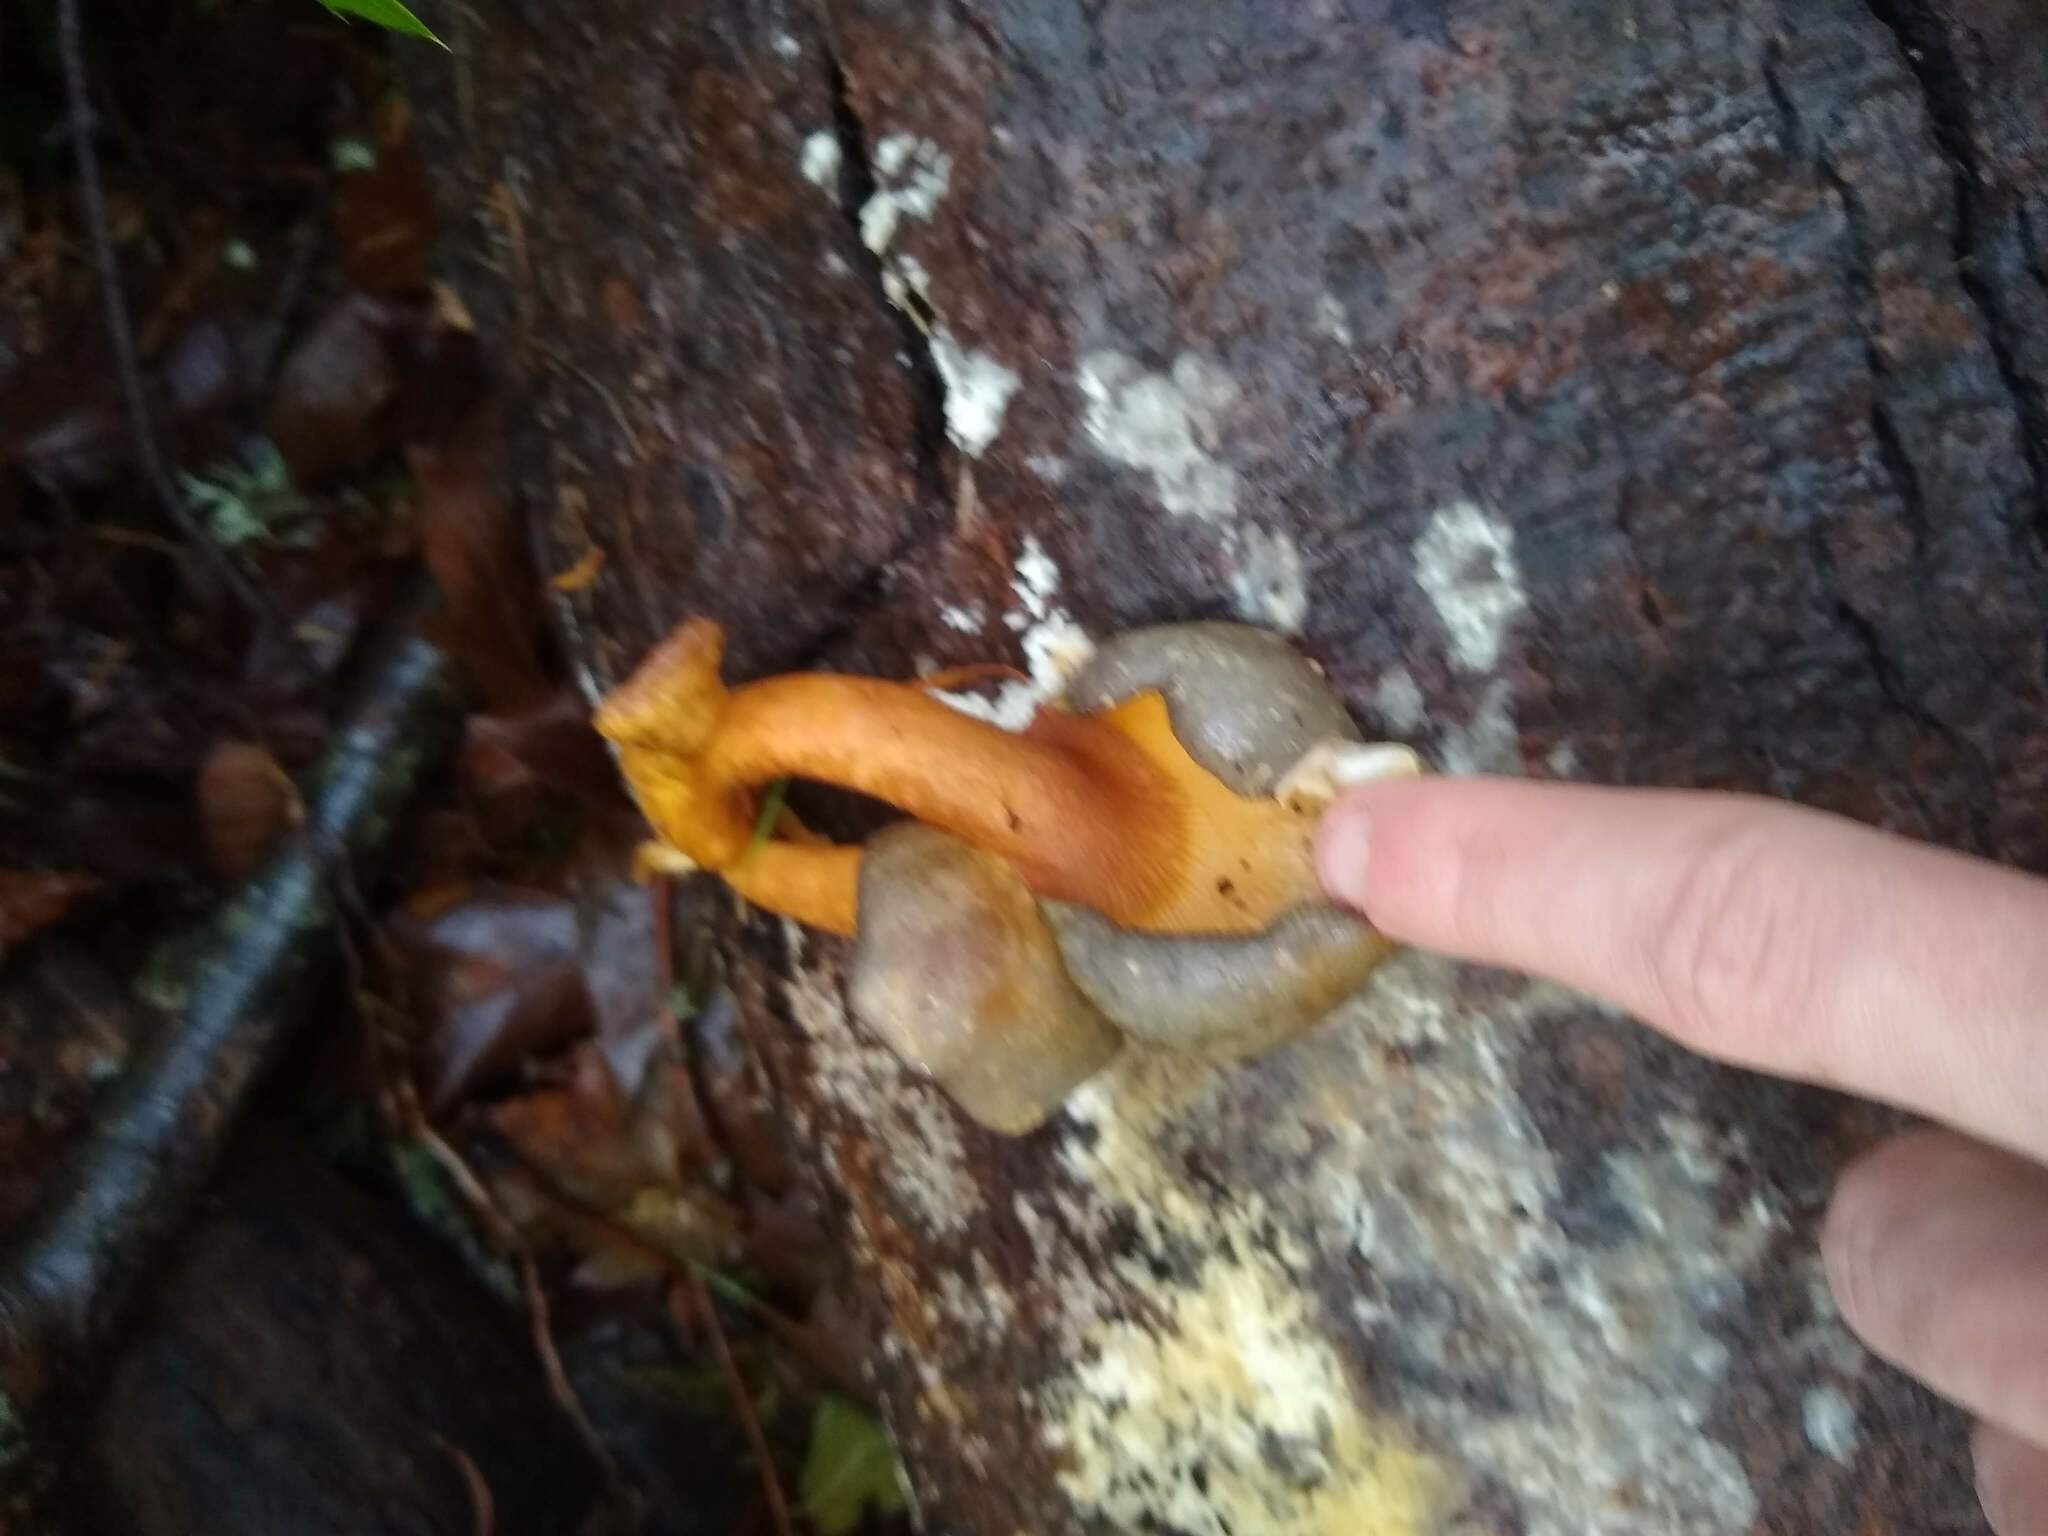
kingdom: Fungi
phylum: Basidiomycota
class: Agaricomycetes
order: Agaricales
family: Sarcomyxaceae
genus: Sarcomyxa
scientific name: Sarcomyxa serotina
